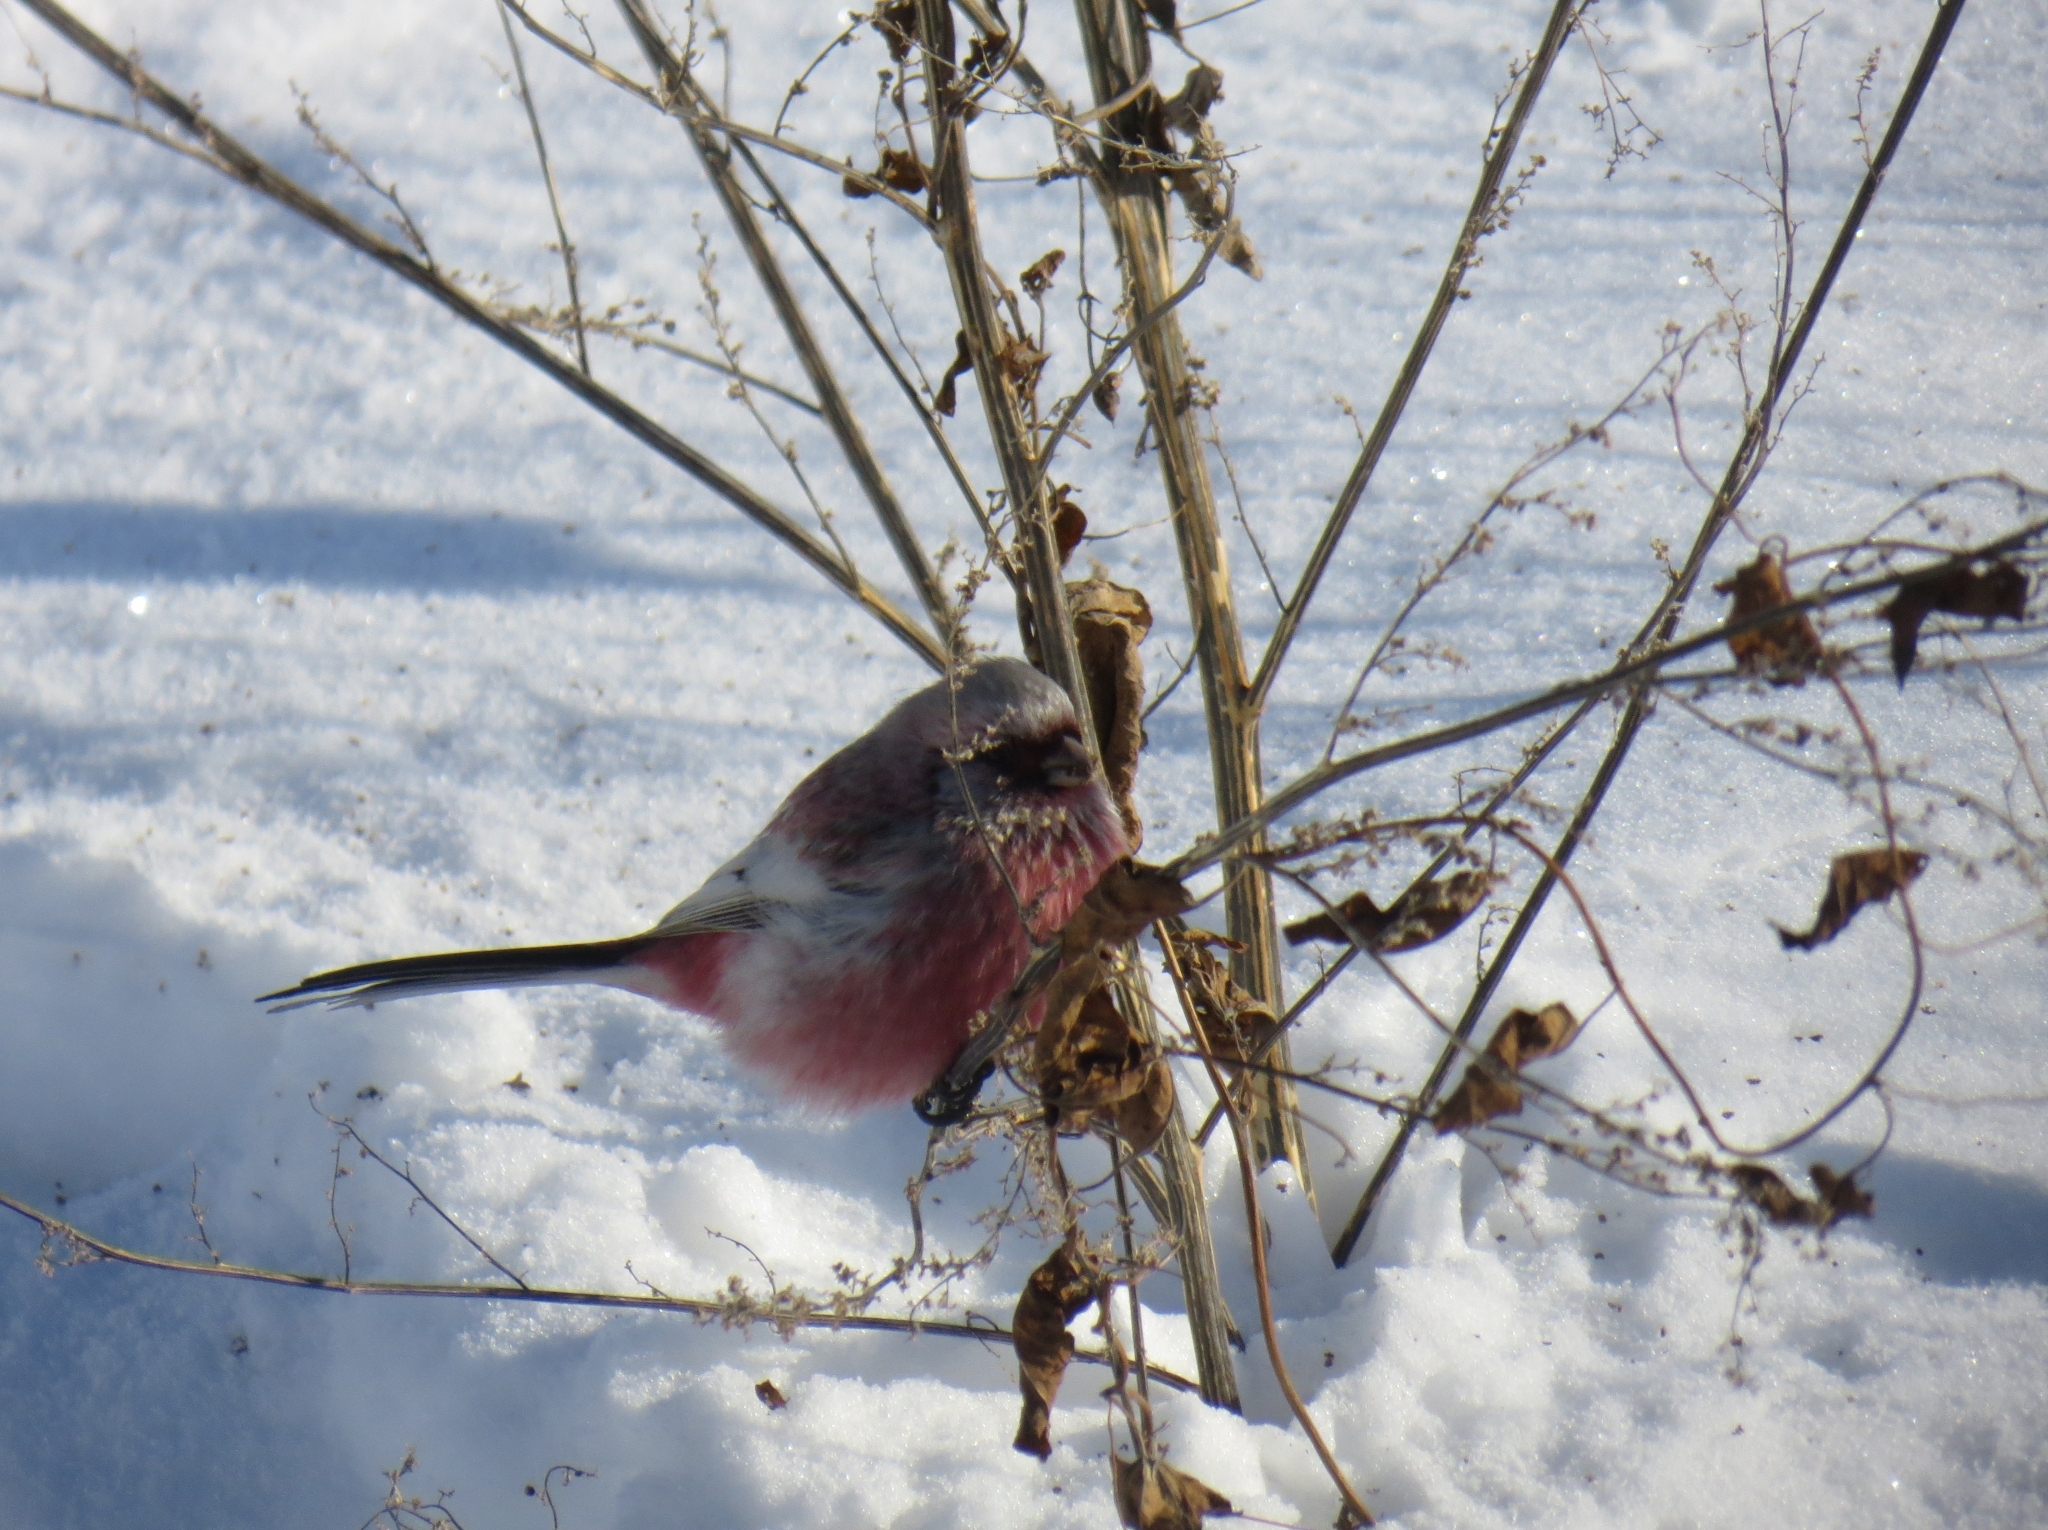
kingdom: Animalia
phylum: Chordata
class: Aves
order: Passeriformes
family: Fringillidae
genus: Carpodacus
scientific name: Carpodacus sibiricus
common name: Long-tailed rosefinch
